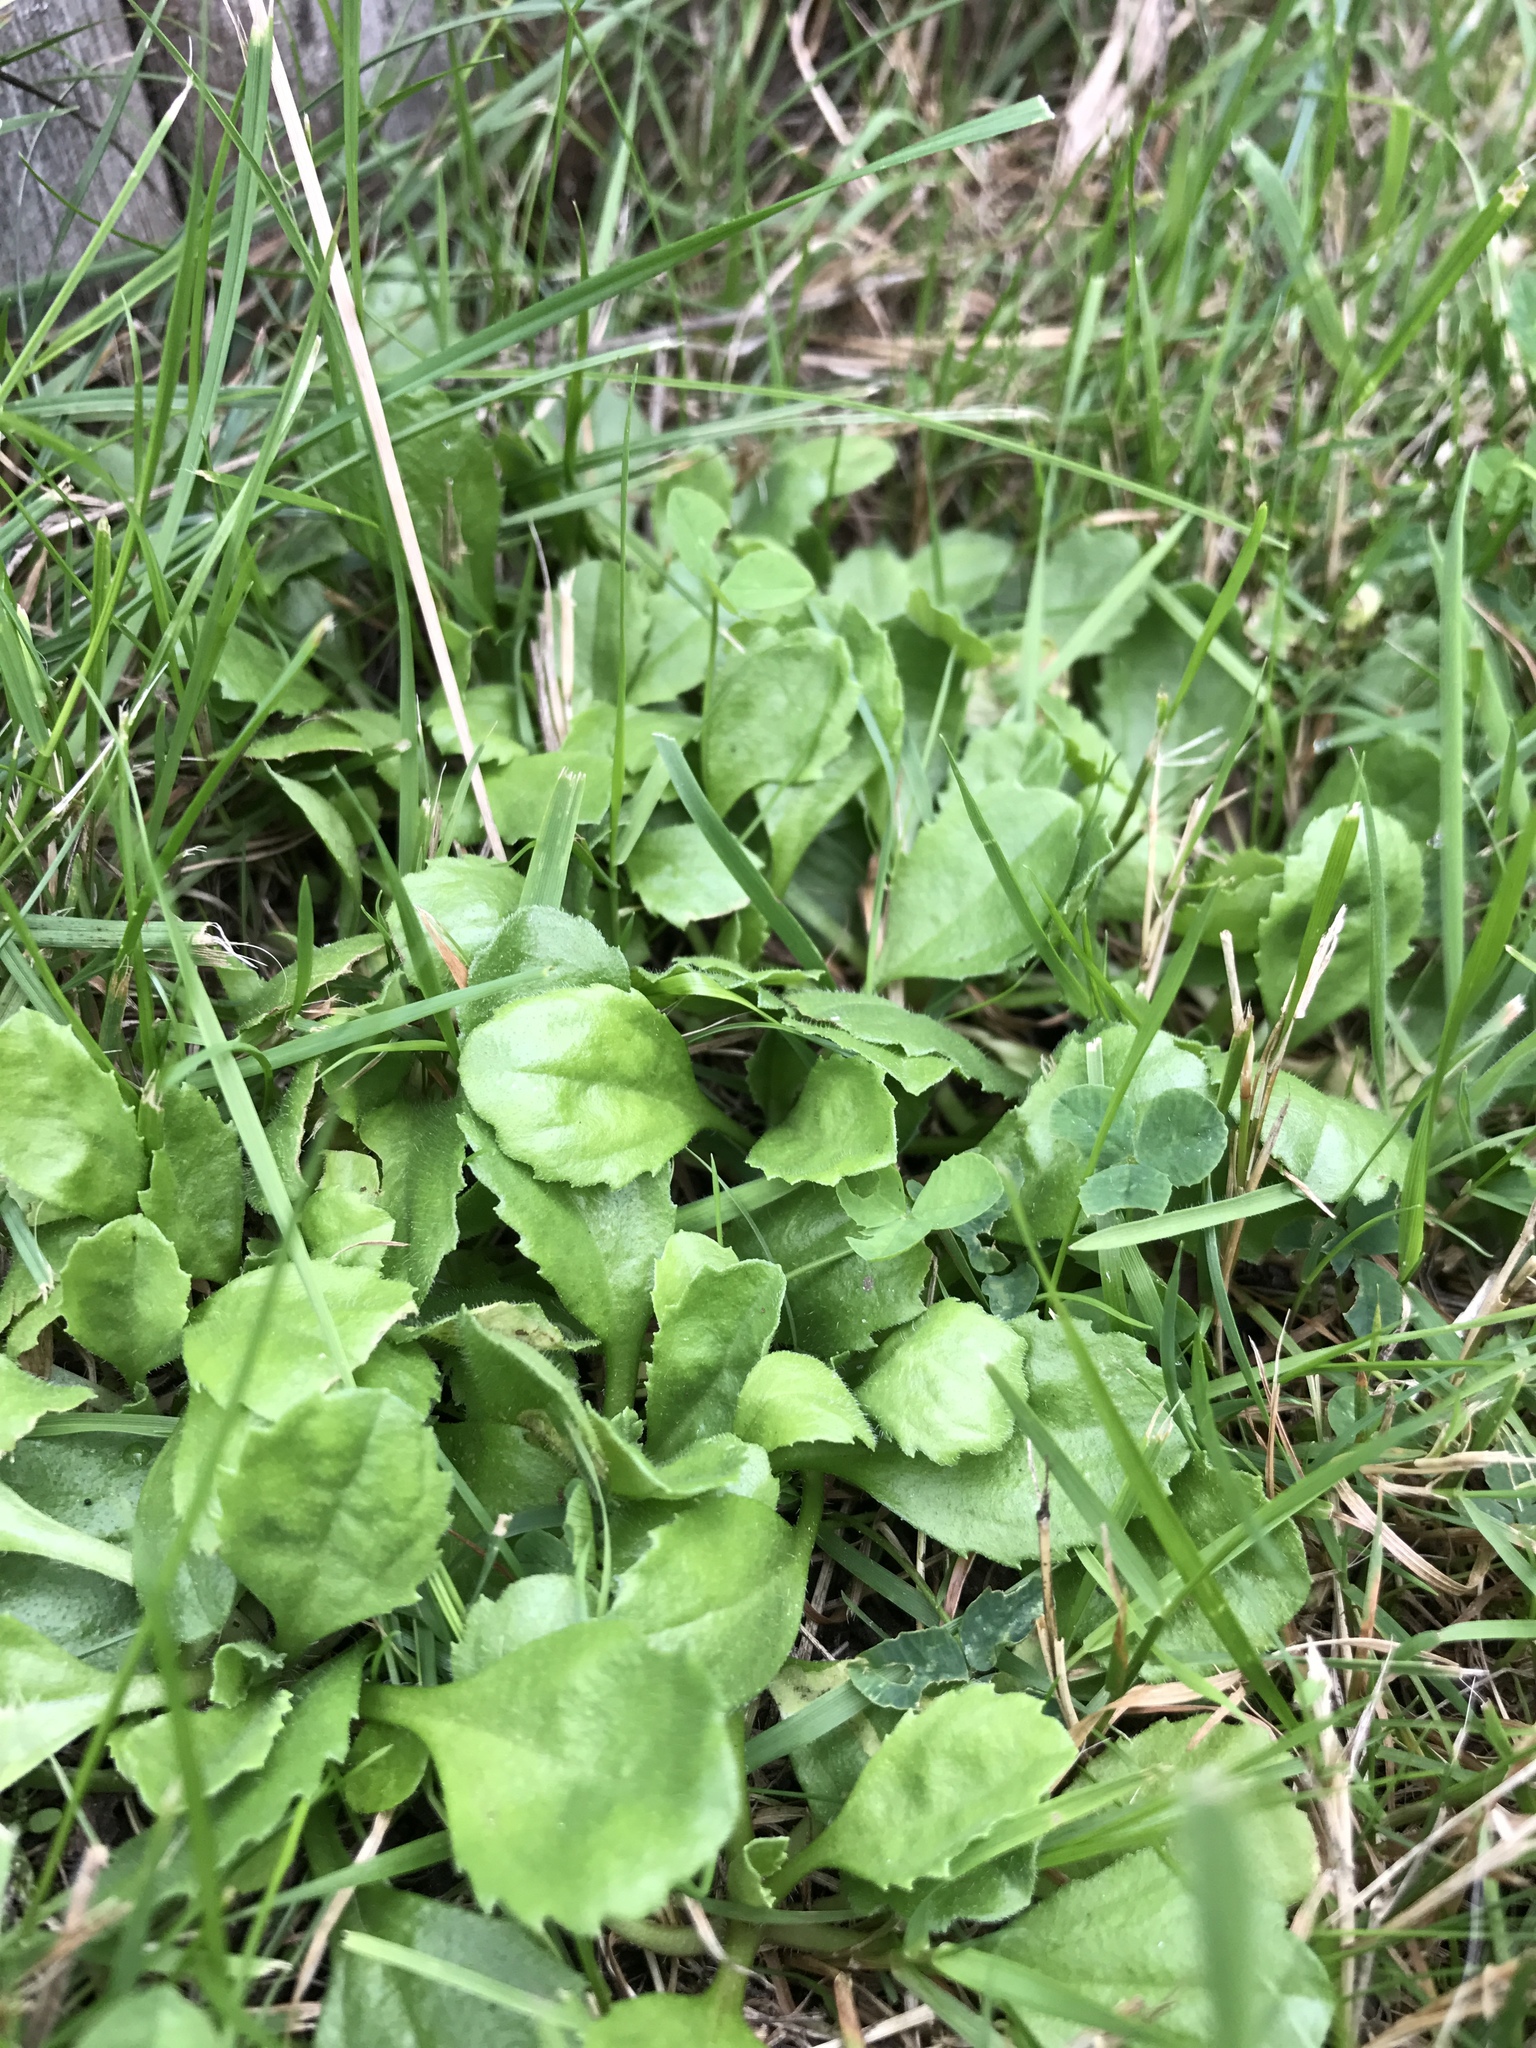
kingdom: Plantae
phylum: Tracheophyta
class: Magnoliopsida
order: Asterales
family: Asteraceae
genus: Bellis
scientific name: Bellis perennis
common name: Lawndaisy
